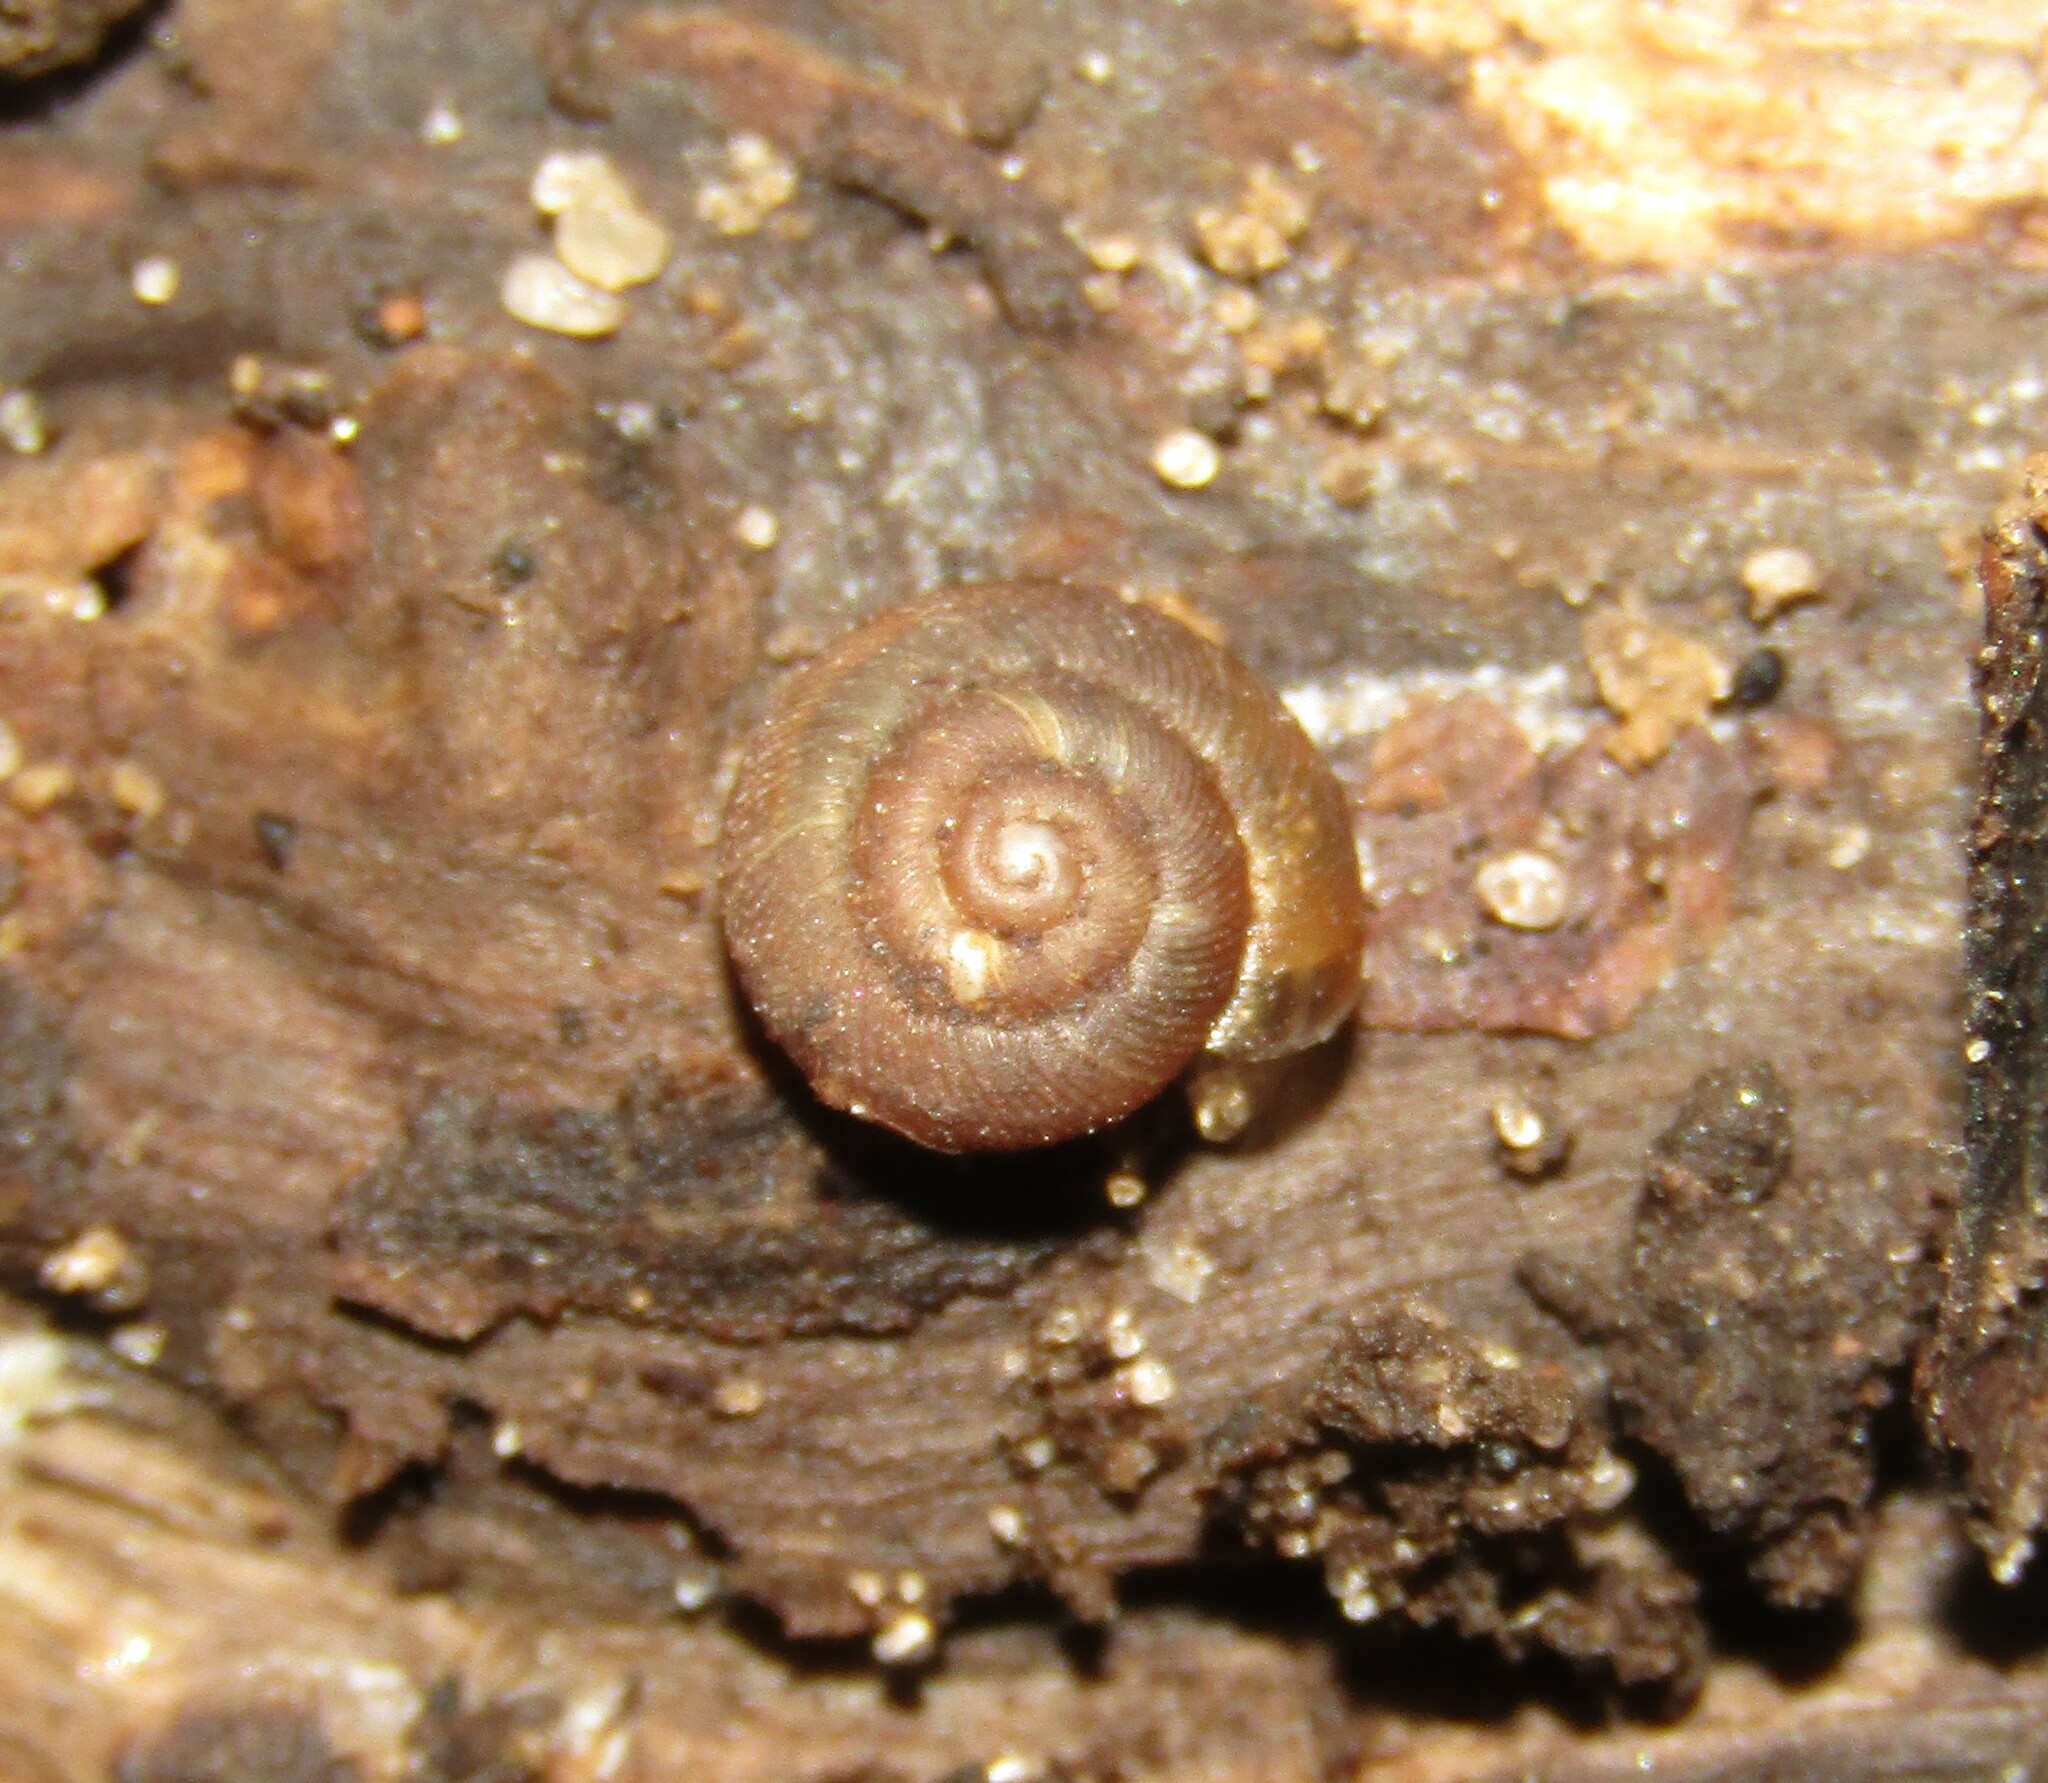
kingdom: Animalia
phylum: Mollusca
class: Gastropoda
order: Stylommatophora
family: Discidae
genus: Discus
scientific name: Discus ruderatus
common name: Brown disc snail
